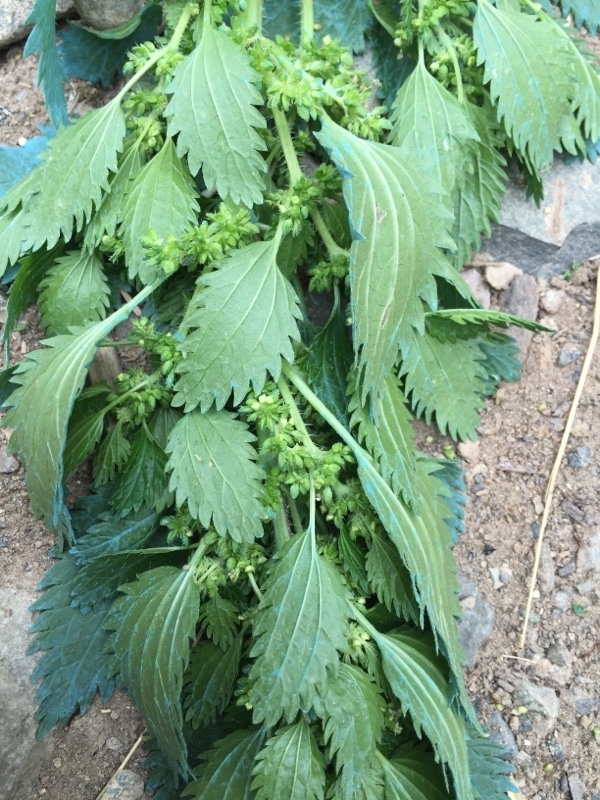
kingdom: Plantae
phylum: Tracheophyta
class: Magnoliopsida
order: Rosales
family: Urticaceae
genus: Urtica
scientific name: Urtica urens
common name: Dwarf nettle
